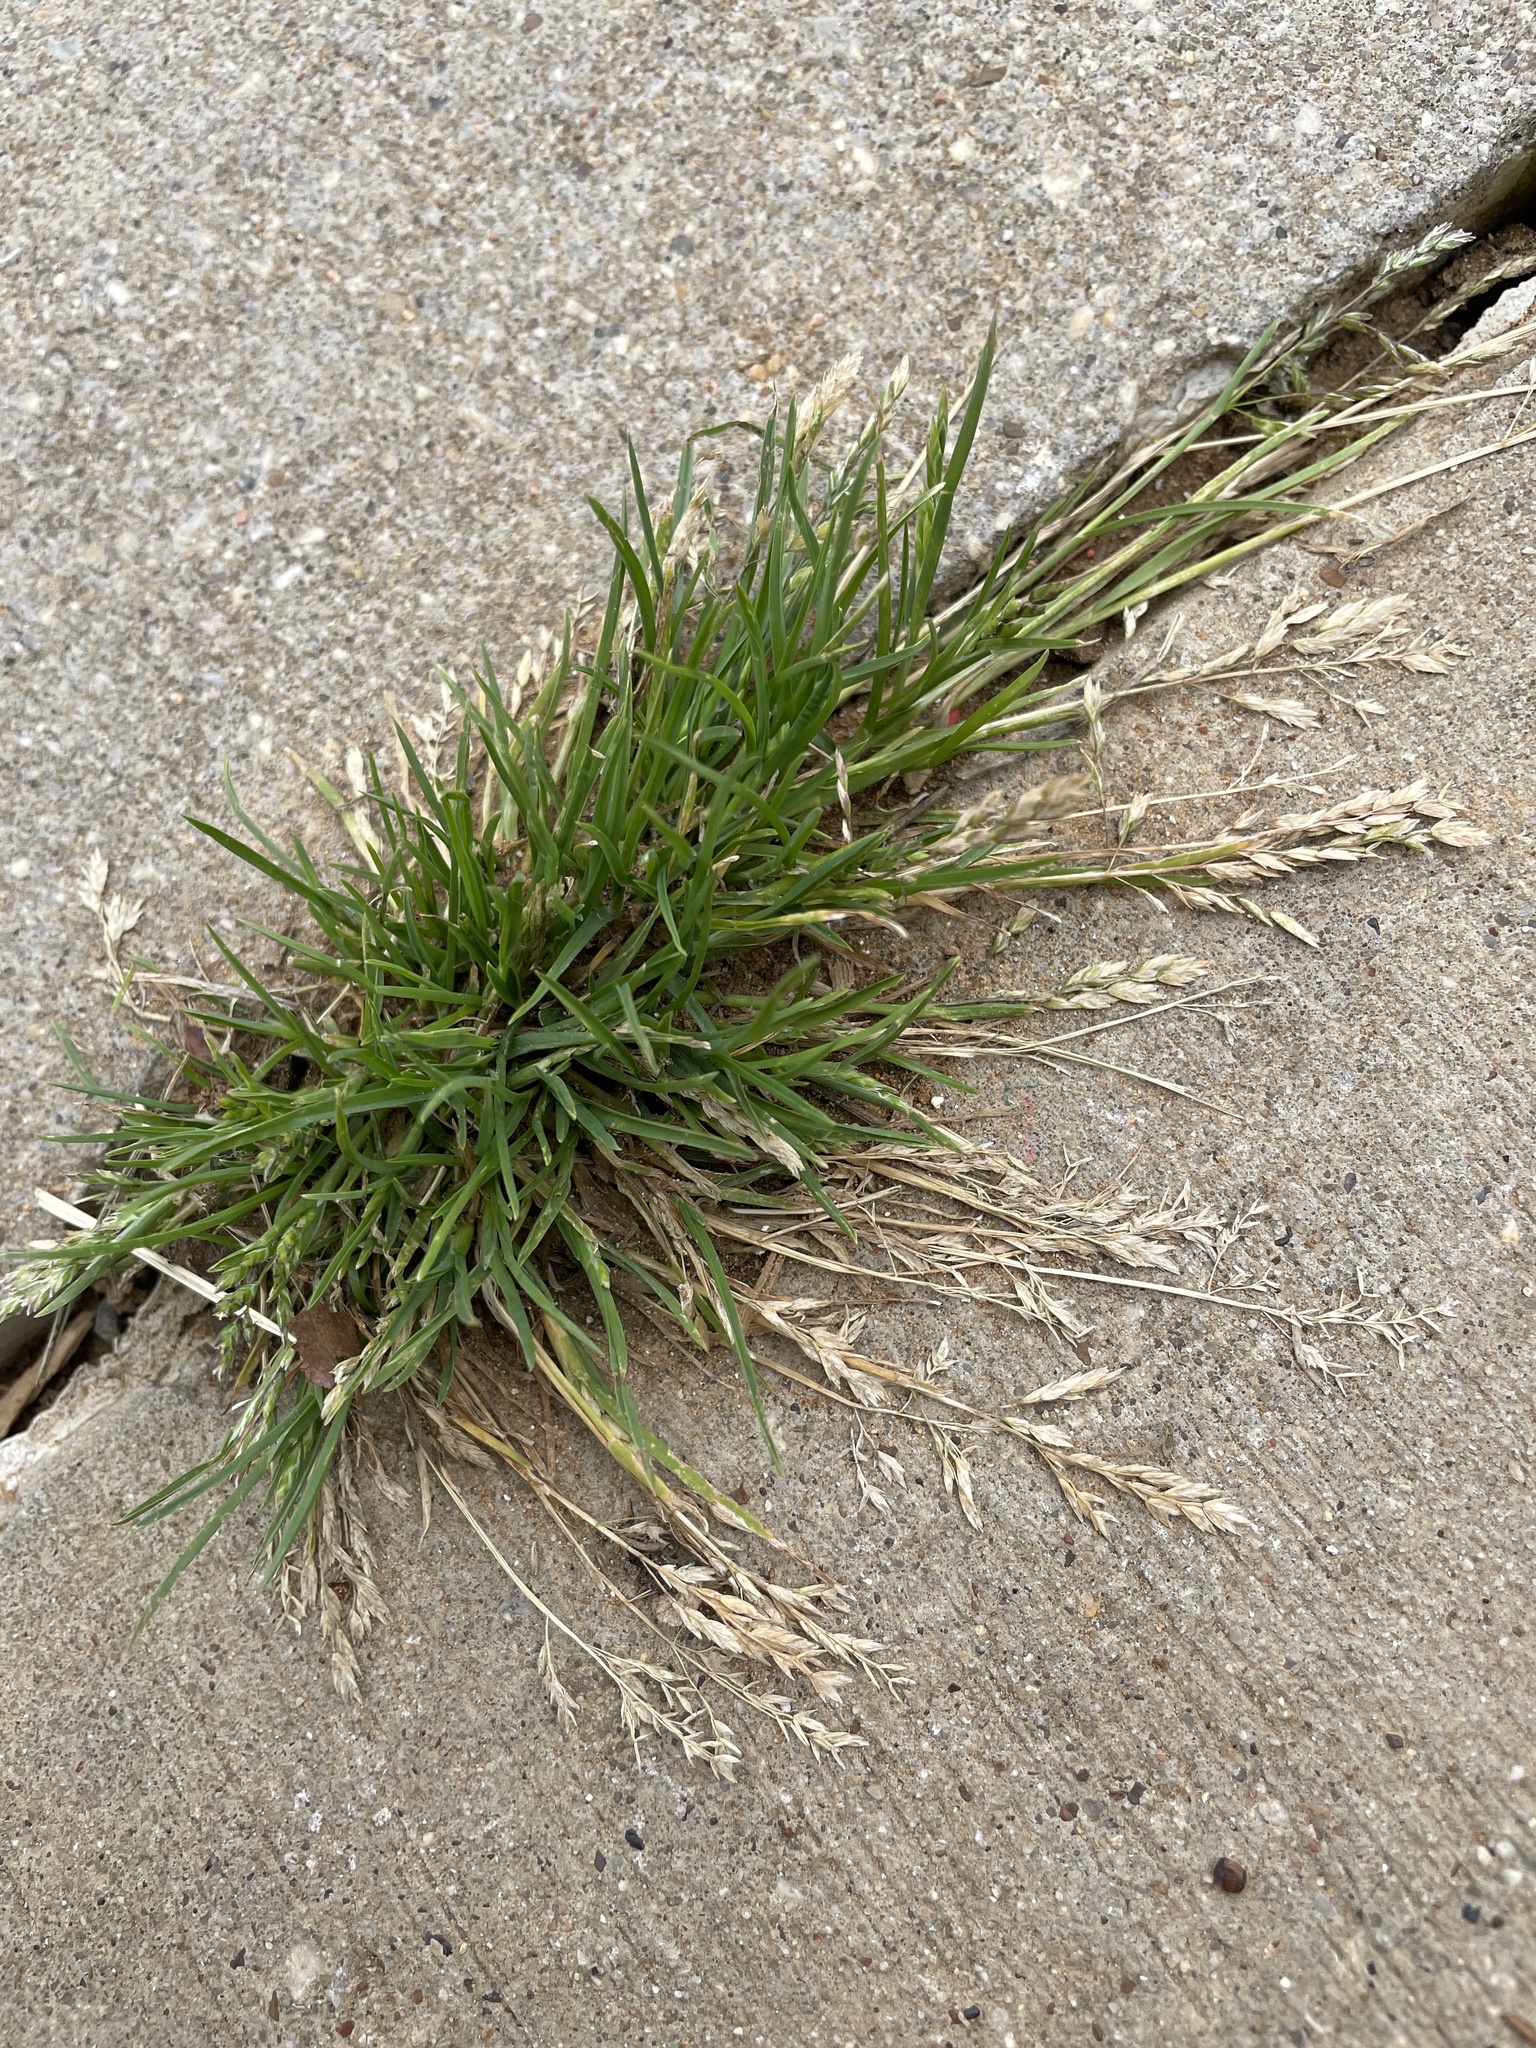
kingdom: Plantae
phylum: Tracheophyta
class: Liliopsida
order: Poales
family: Poaceae
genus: Poa
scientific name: Poa annua
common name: Annual bluegrass
